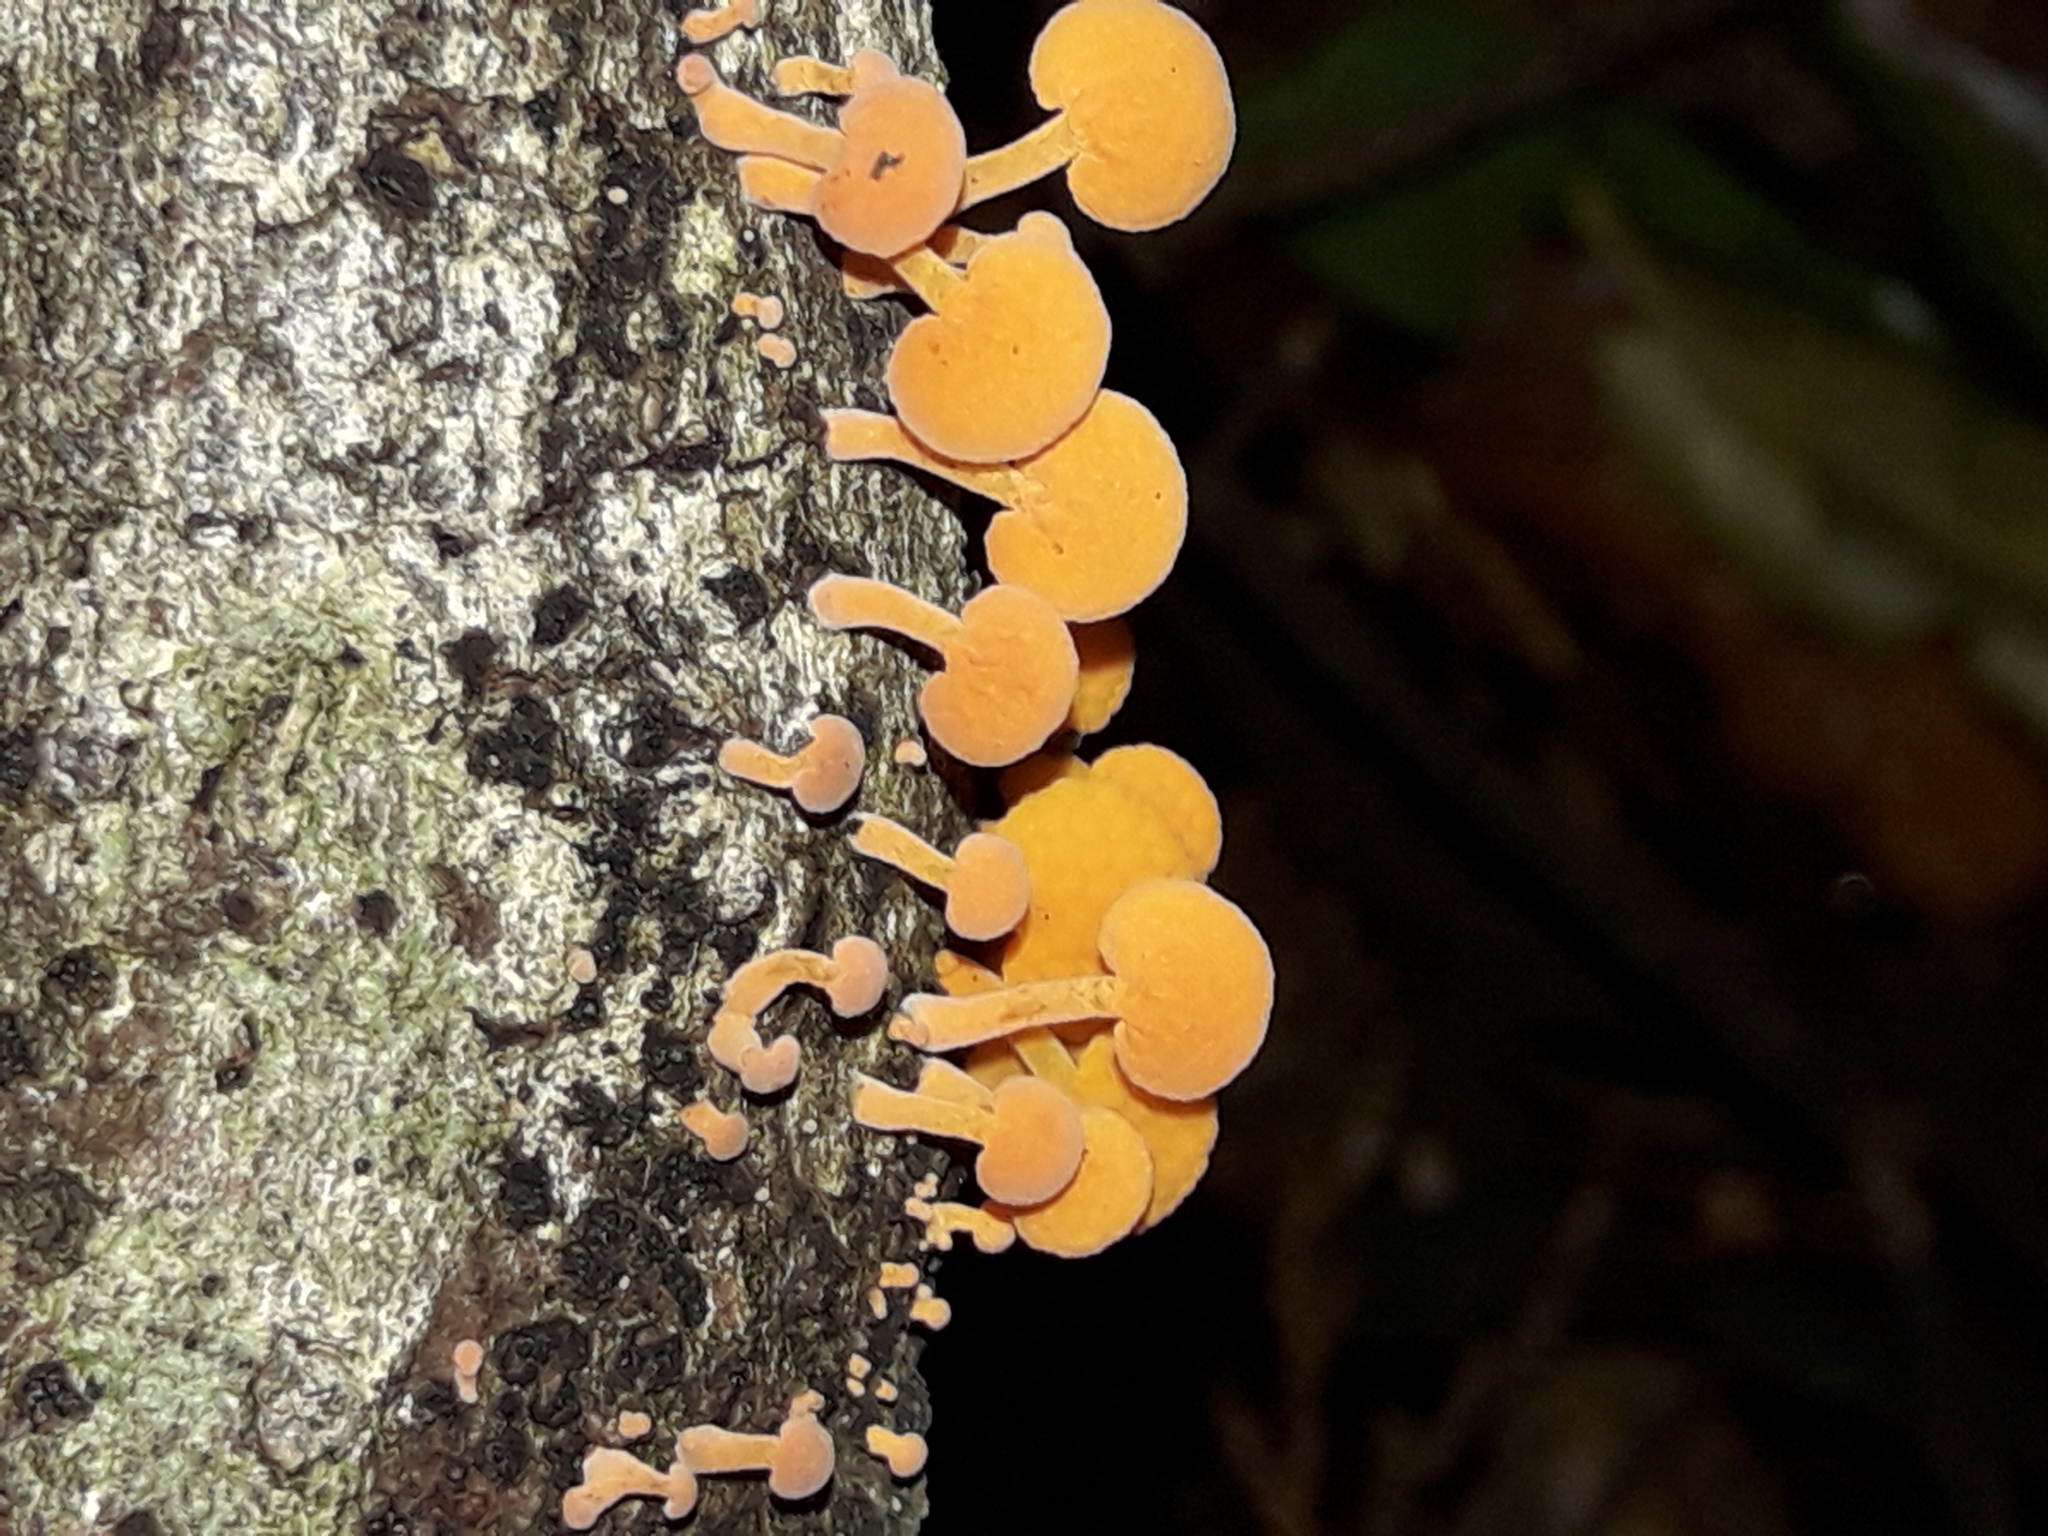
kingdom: Fungi
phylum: Basidiomycota
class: Agaricomycetes
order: Agaricales
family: Mycenaceae
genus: Favolaschia
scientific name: Favolaschia claudopus
